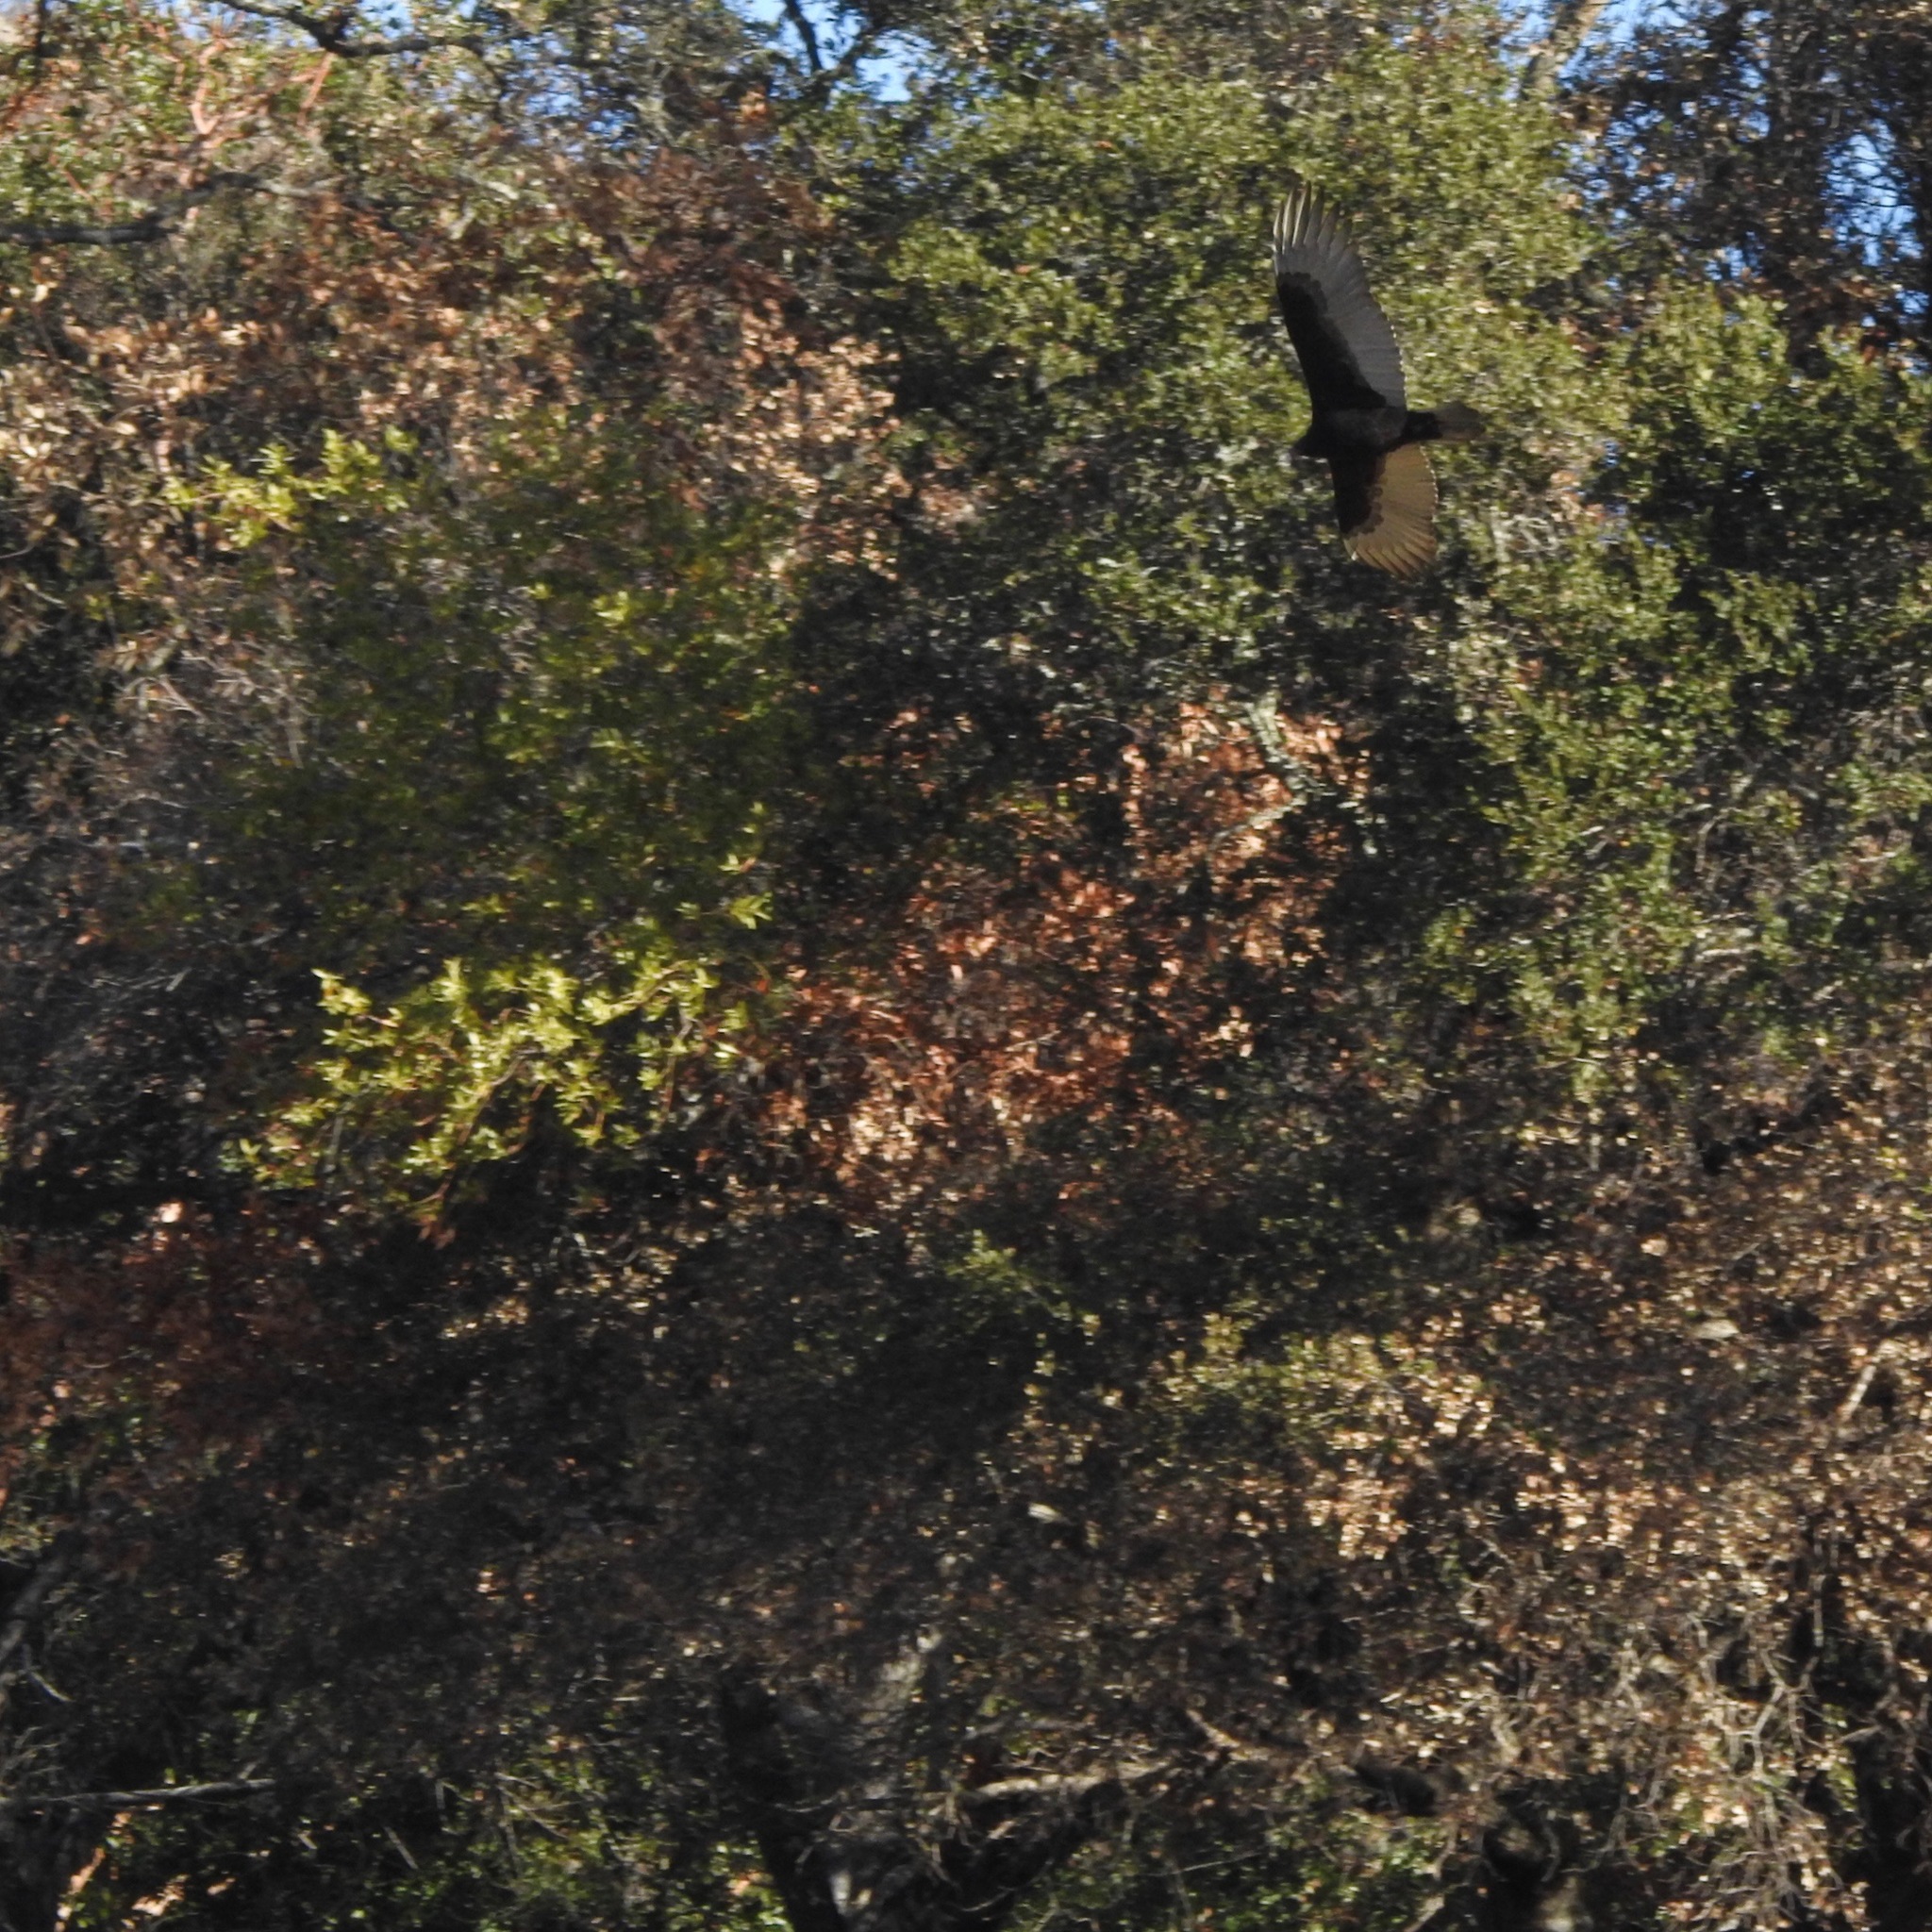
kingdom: Animalia
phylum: Chordata
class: Aves
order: Accipitriformes
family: Cathartidae
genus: Cathartes
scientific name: Cathartes aura
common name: Turkey vulture
